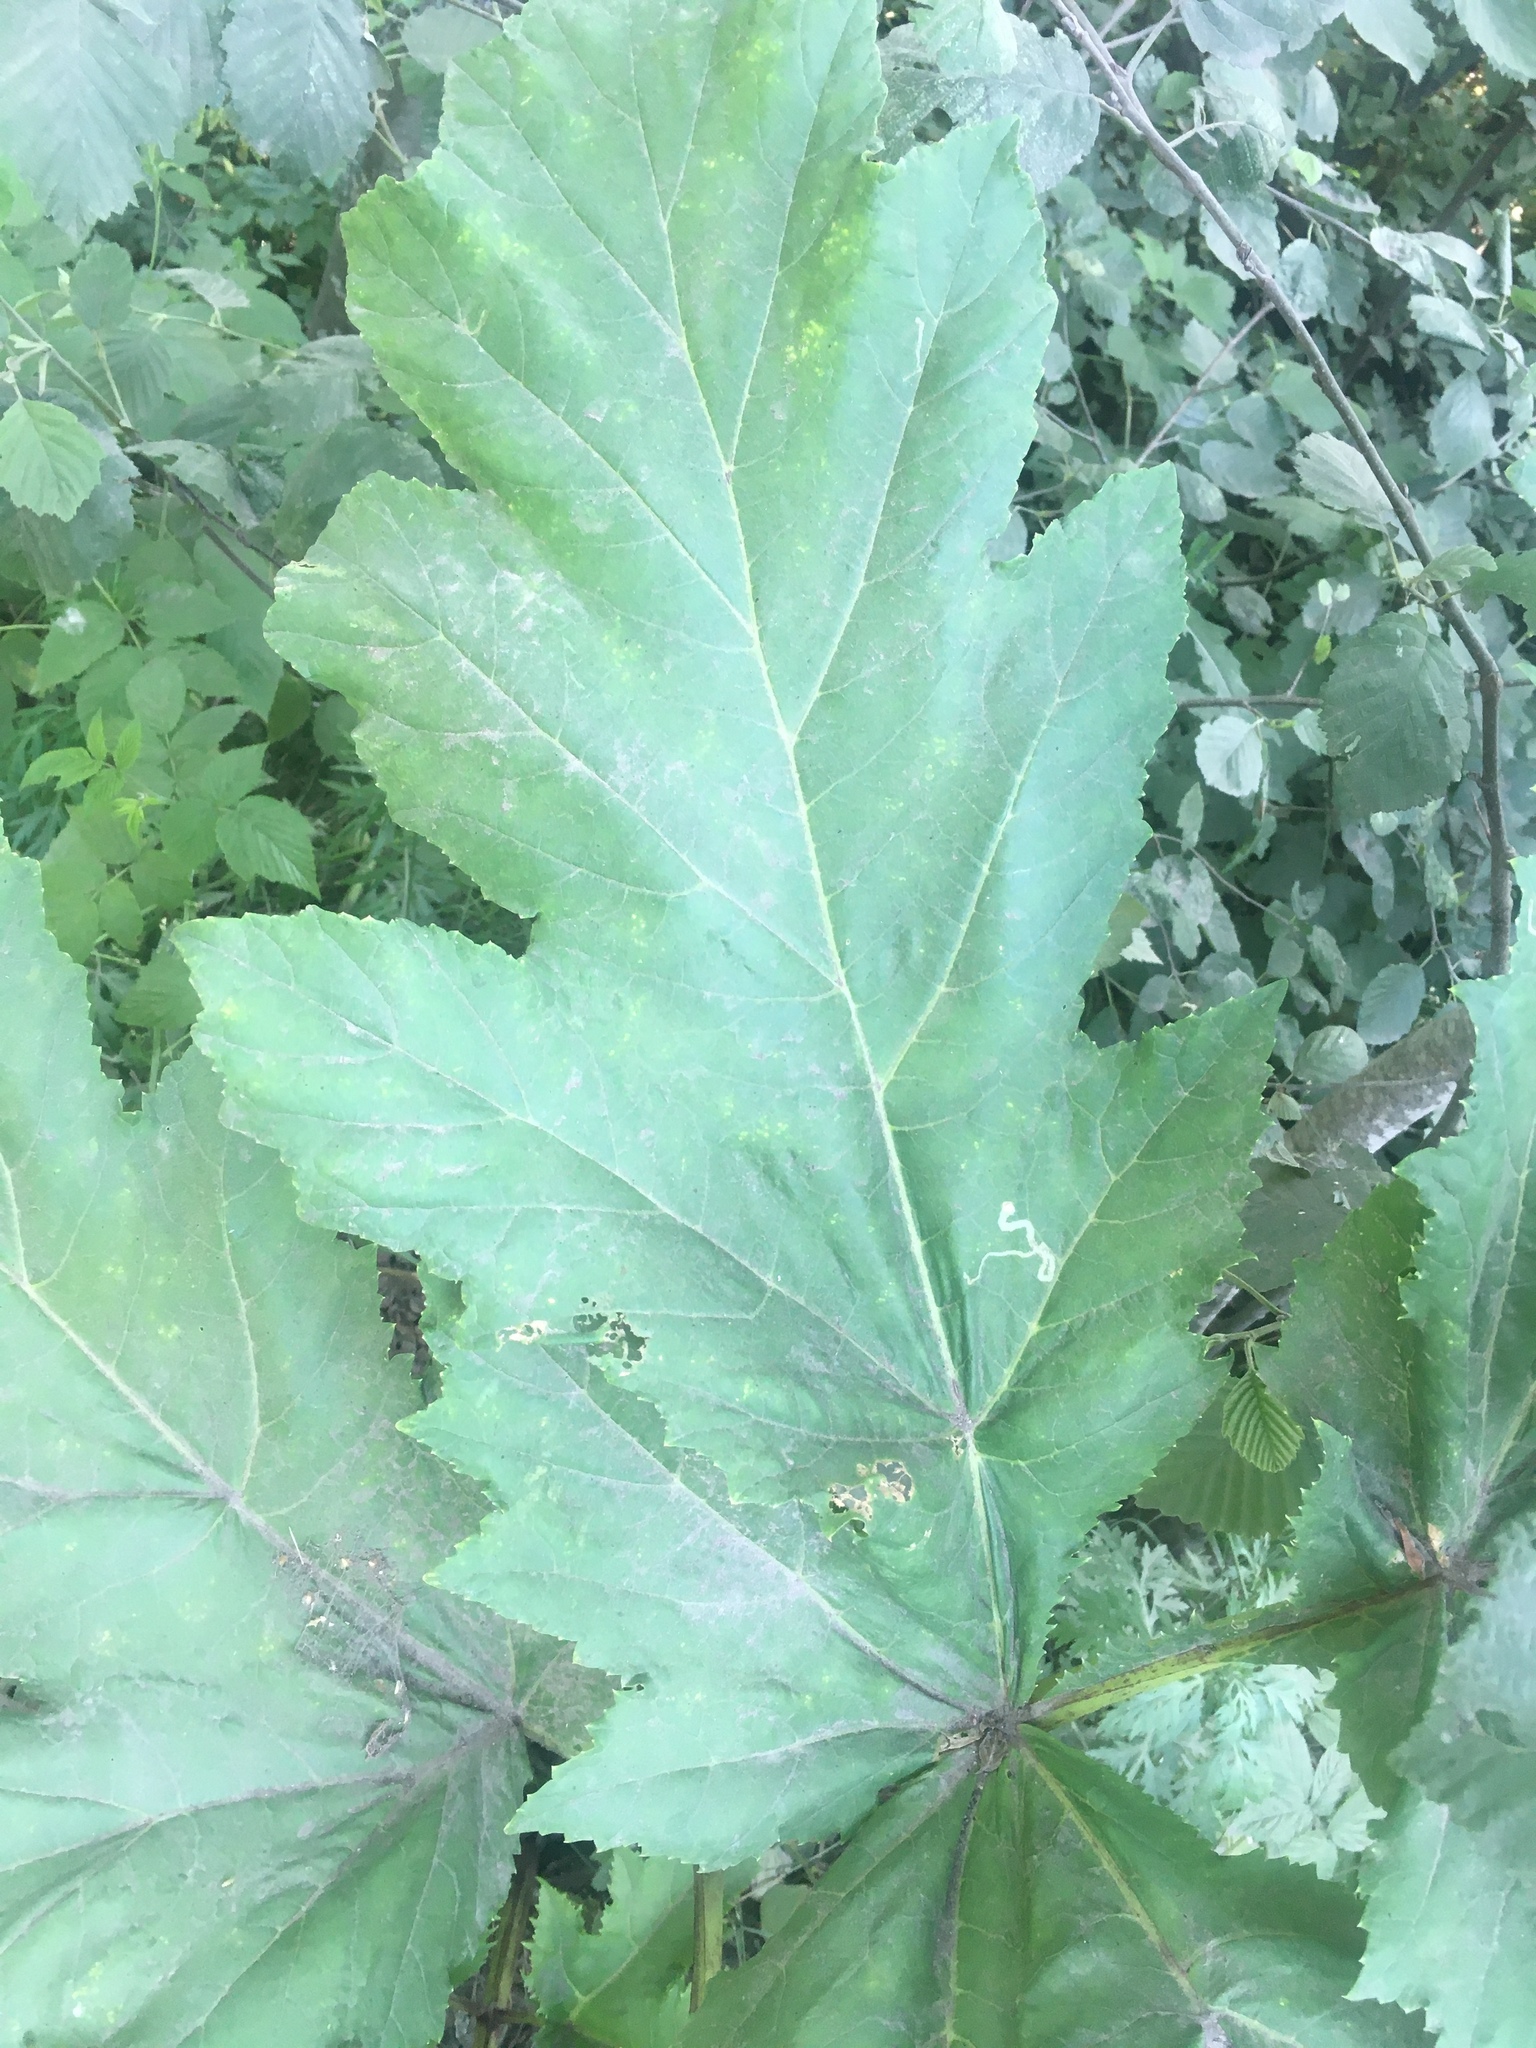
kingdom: Plantae
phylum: Tracheophyta
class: Magnoliopsida
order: Apiales
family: Apiaceae
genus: Heracleum
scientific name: Heracleum sosnowskyi
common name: Sosnowsky's hogweed
